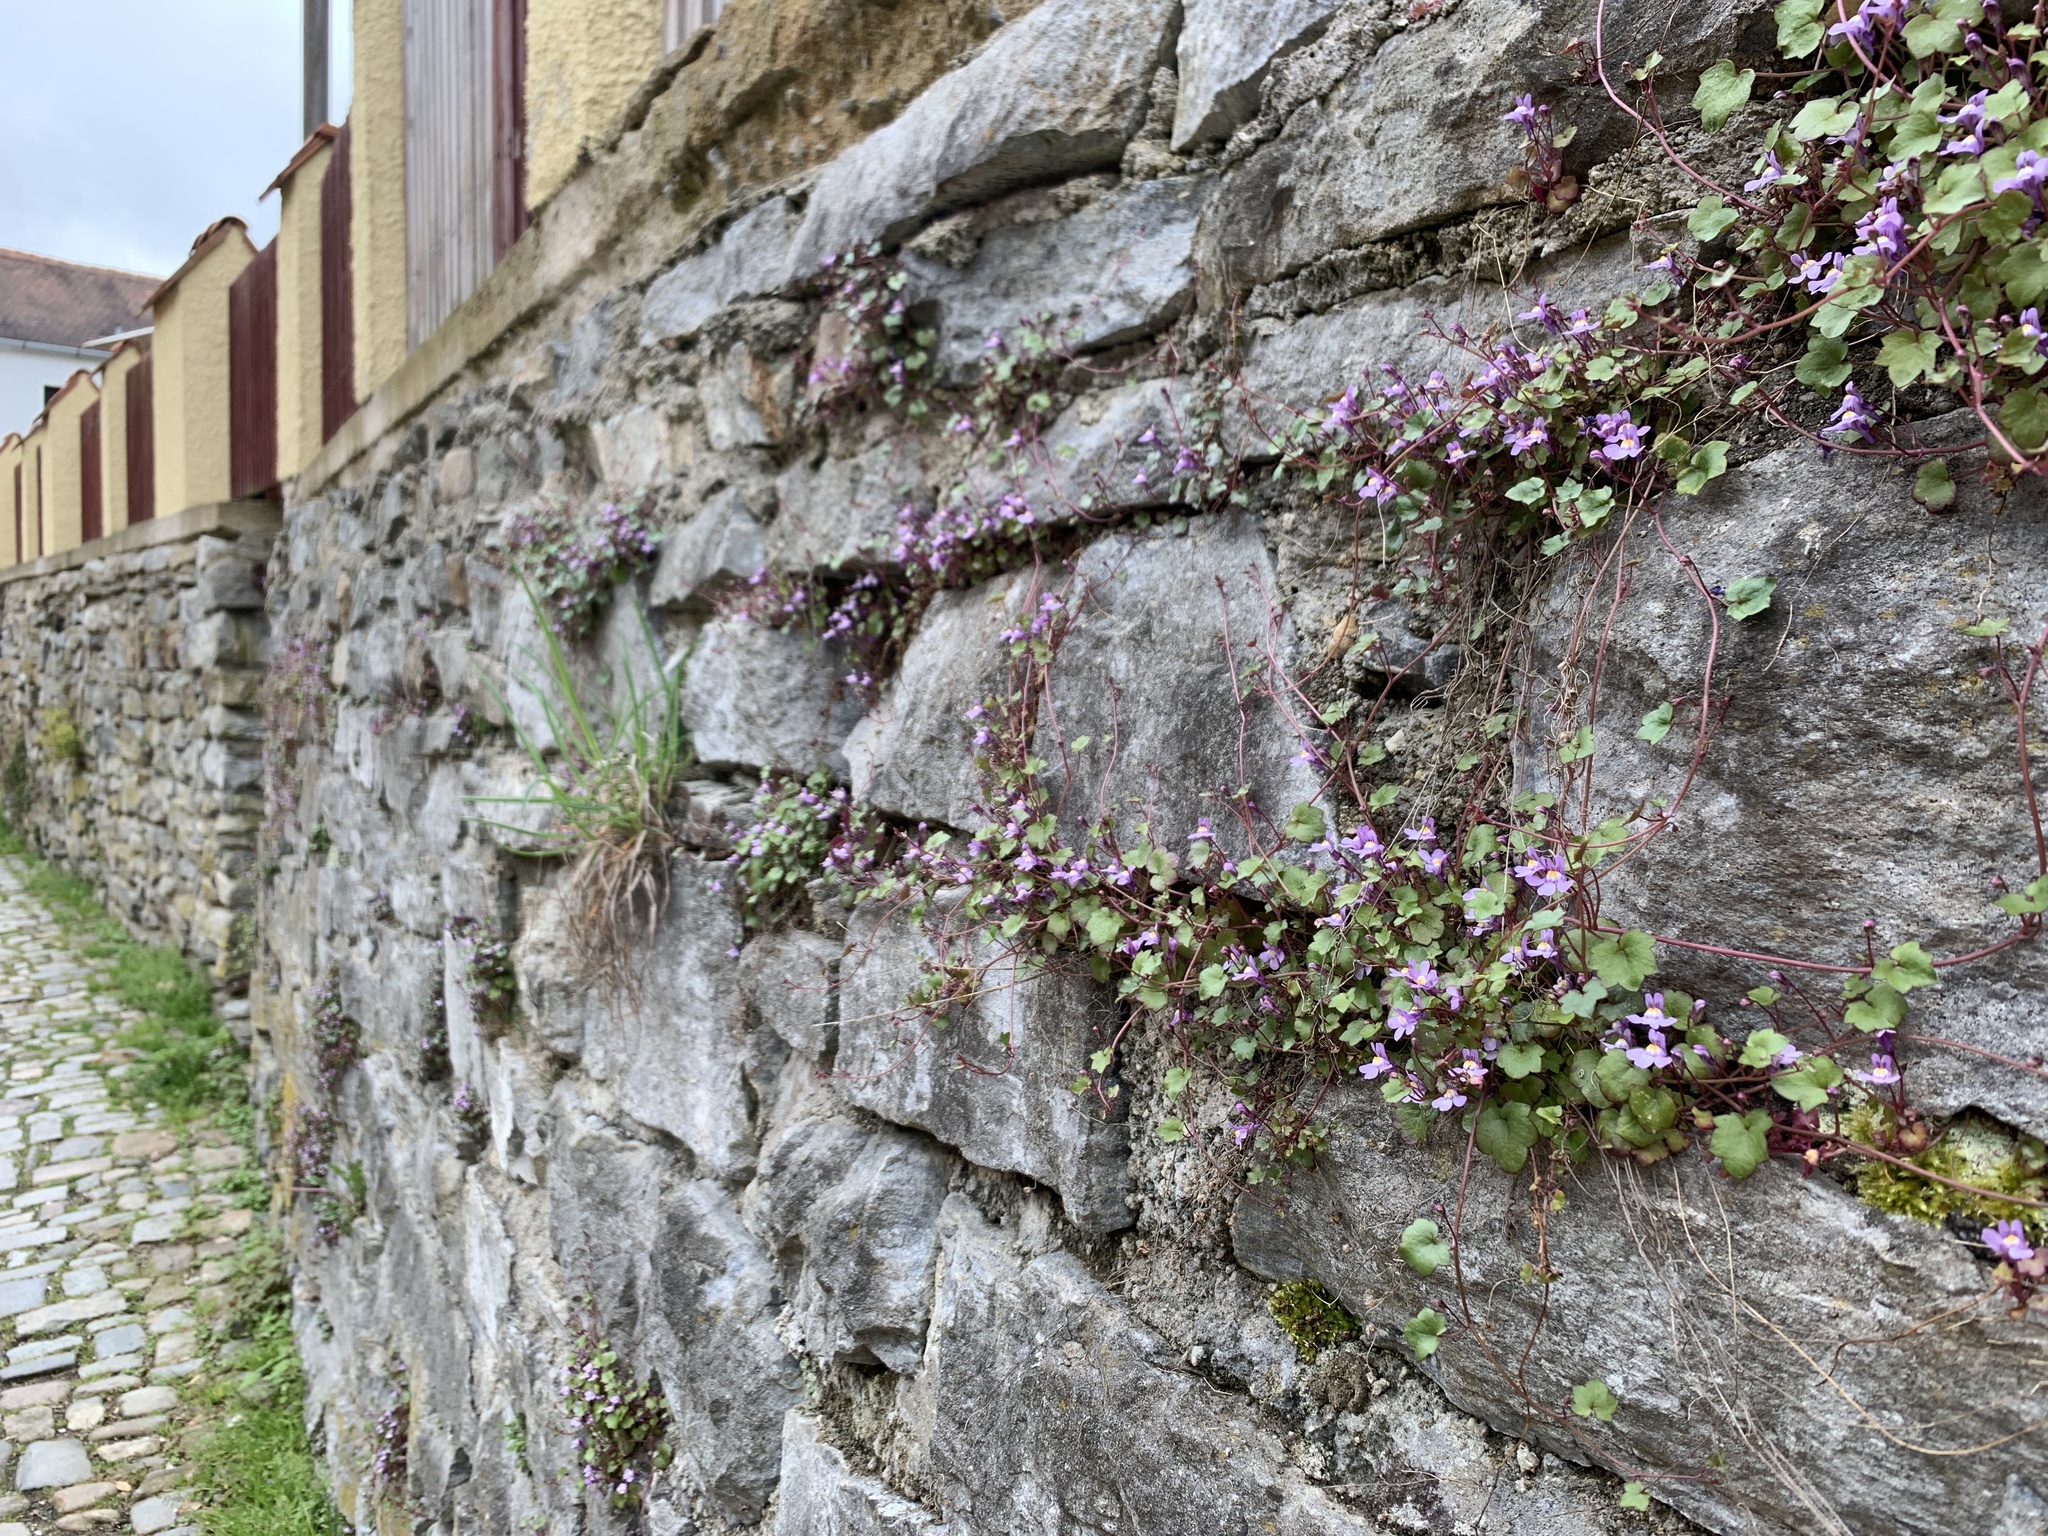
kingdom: Plantae
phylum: Tracheophyta
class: Magnoliopsida
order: Lamiales
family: Plantaginaceae
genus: Cymbalaria
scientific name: Cymbalaria muralis
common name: Ivy-leaved toadflax
